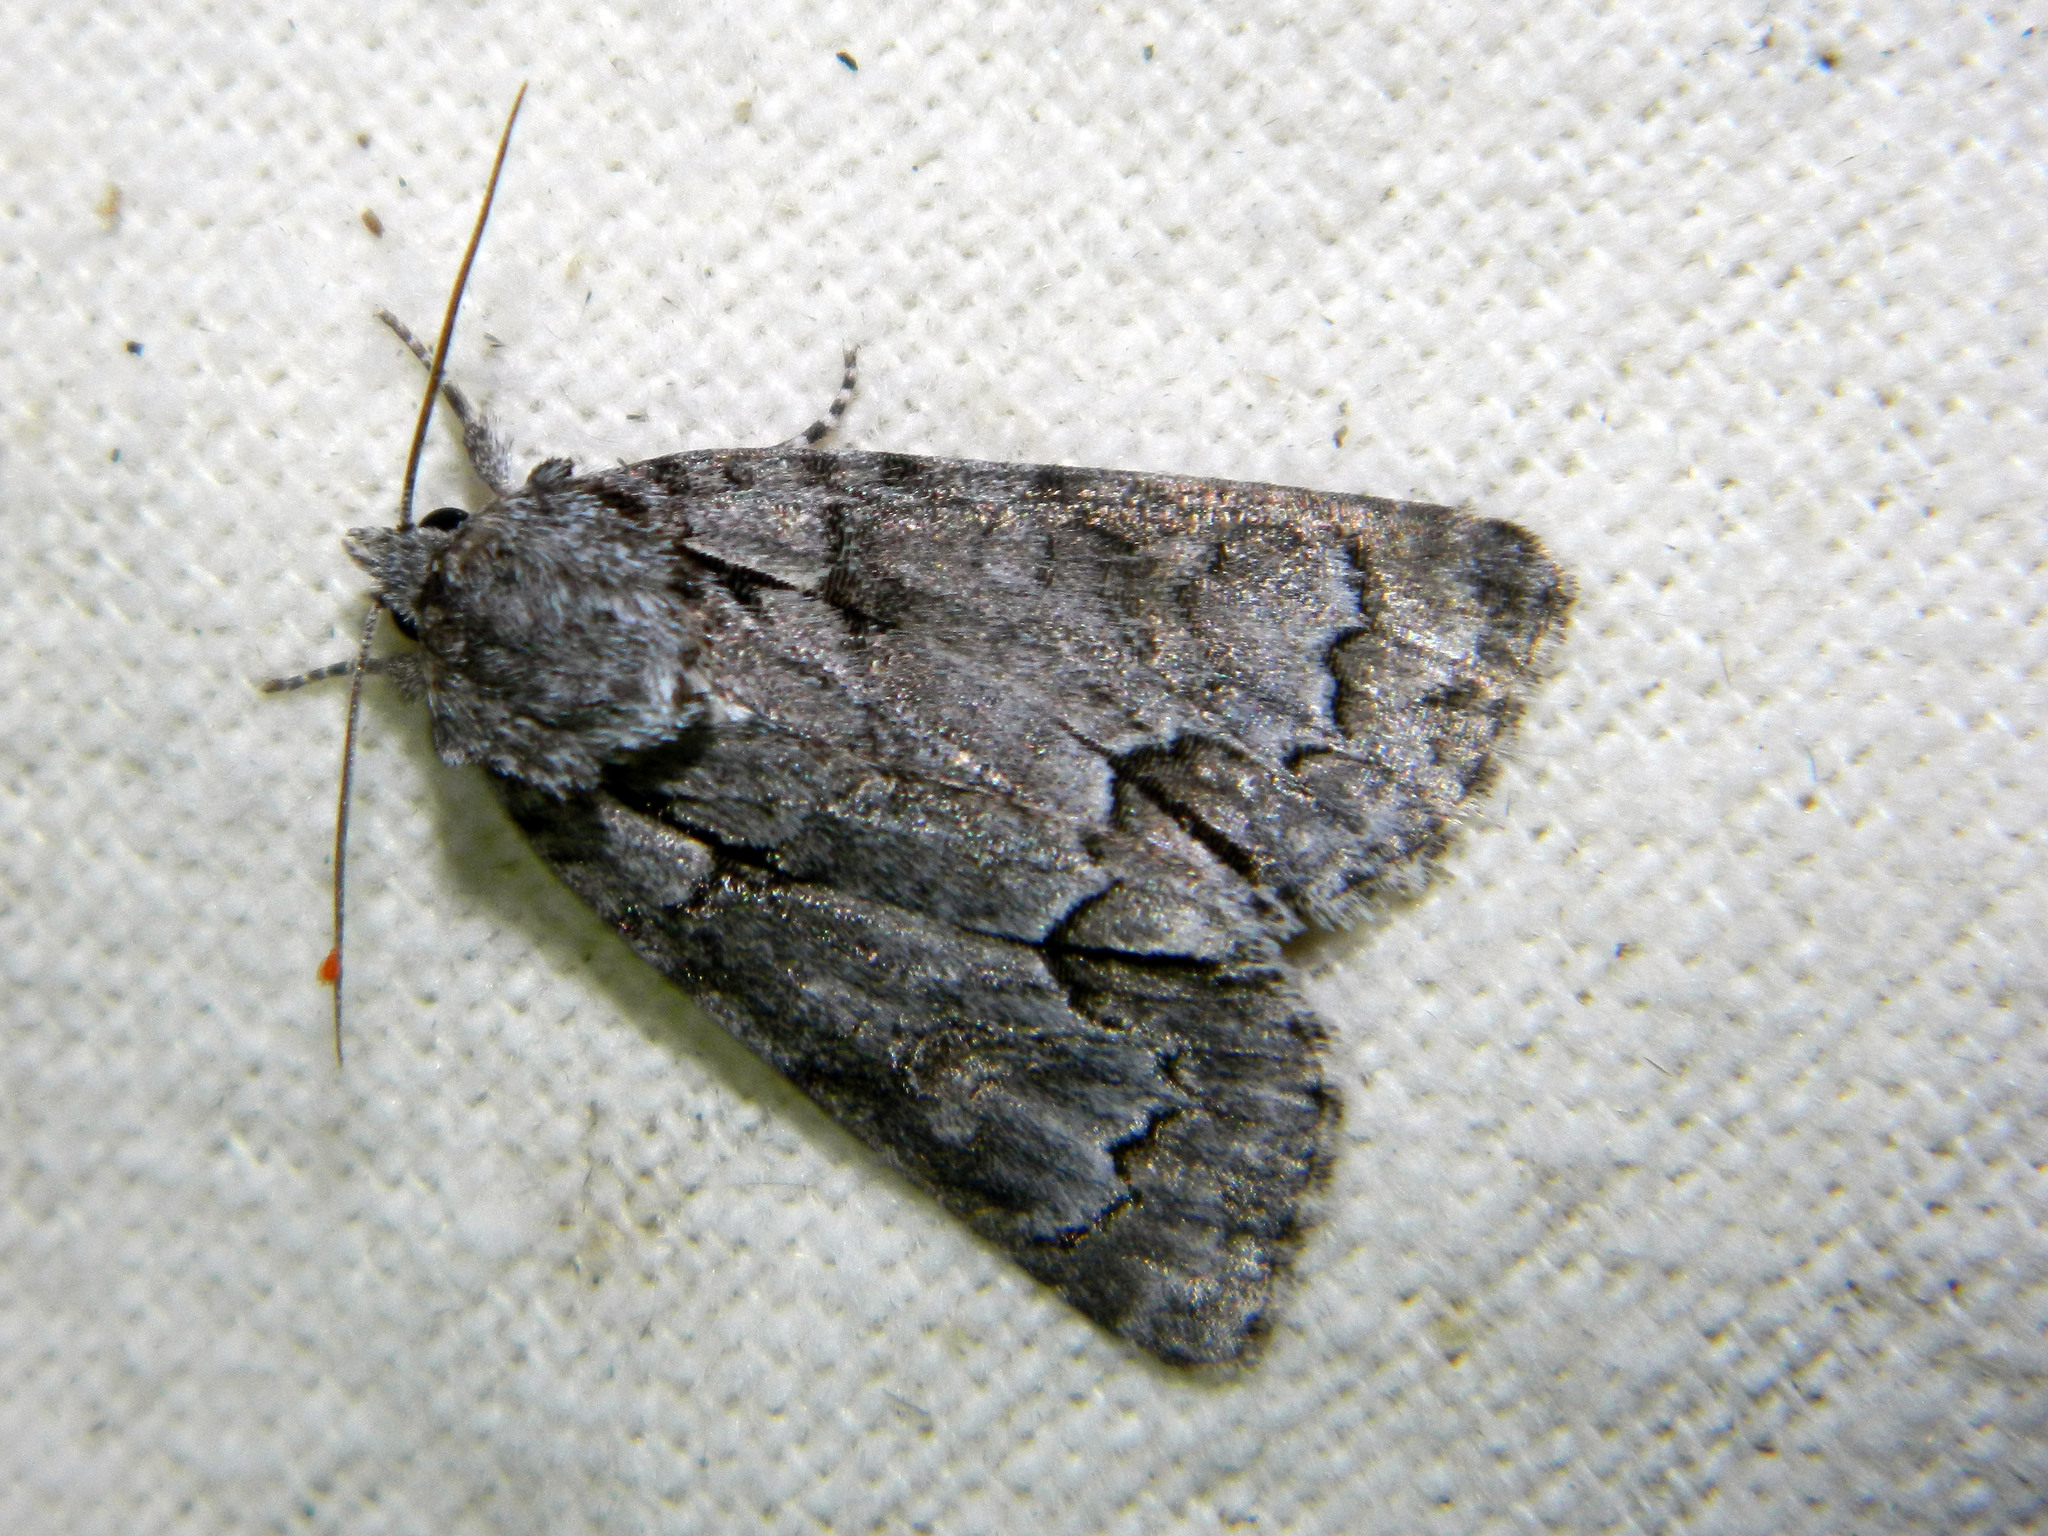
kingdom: Animalia
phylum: Arthropoda
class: Insecta
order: Lepidoptera
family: Noctuidae
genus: Acronicta
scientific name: Acronicta grisea
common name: Gray dagger
